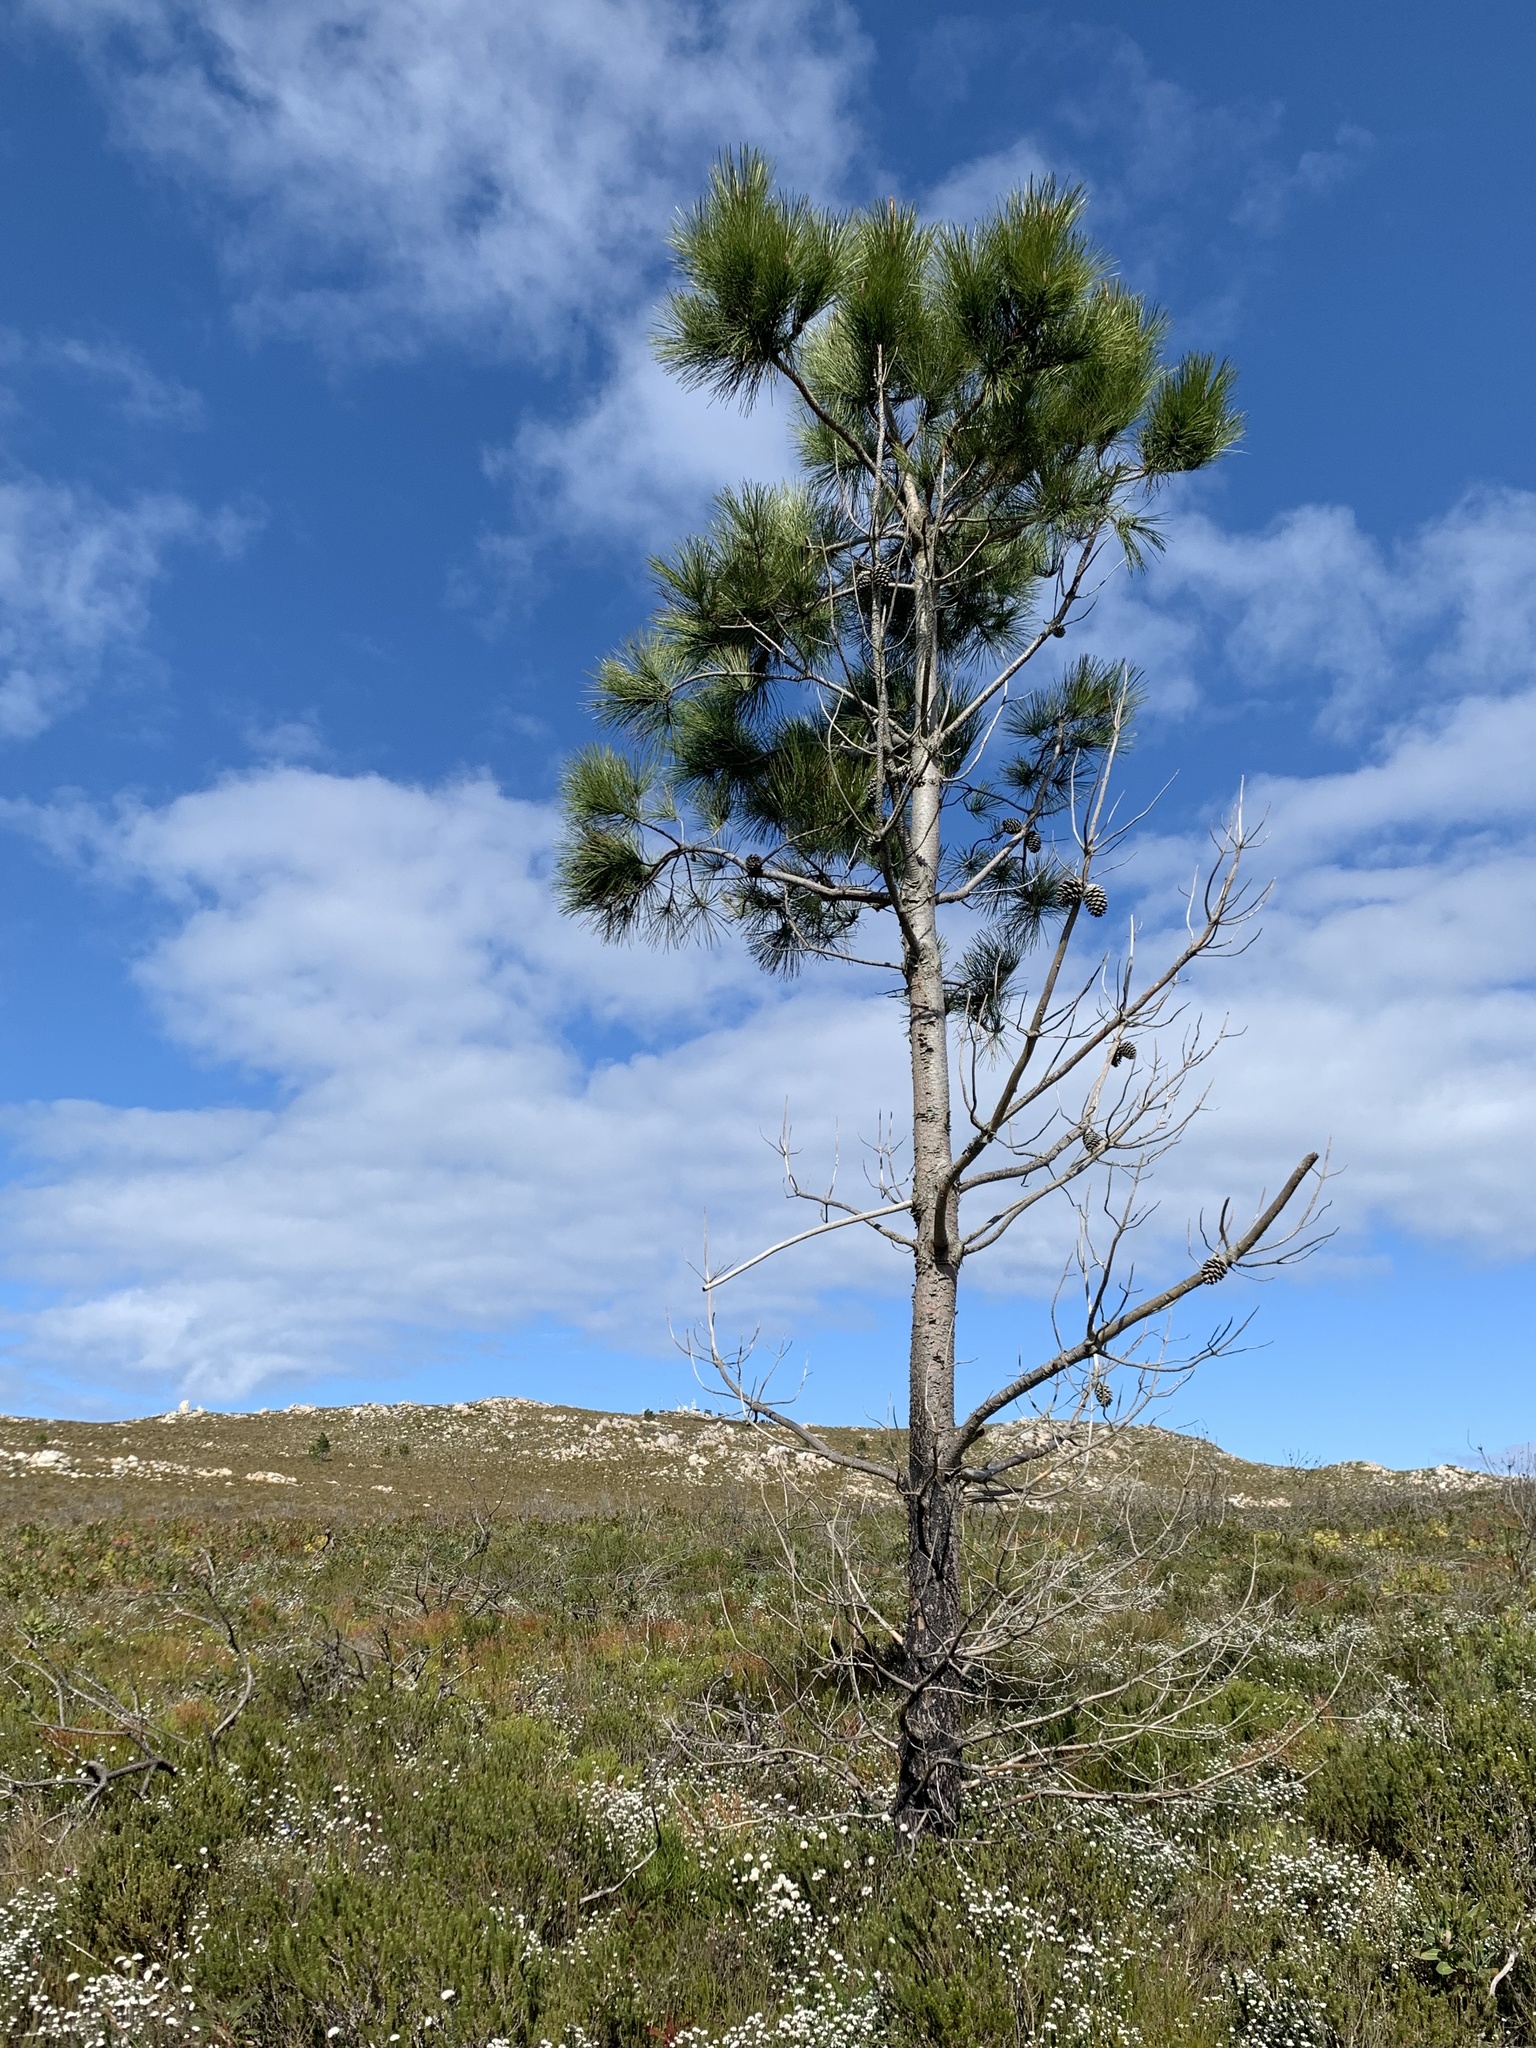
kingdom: Plantae
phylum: Tracheophyta
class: Pinopsida
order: Pinales
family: Pinaceae
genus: Pinus
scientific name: Pinus pinaster
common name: Maritime pine
